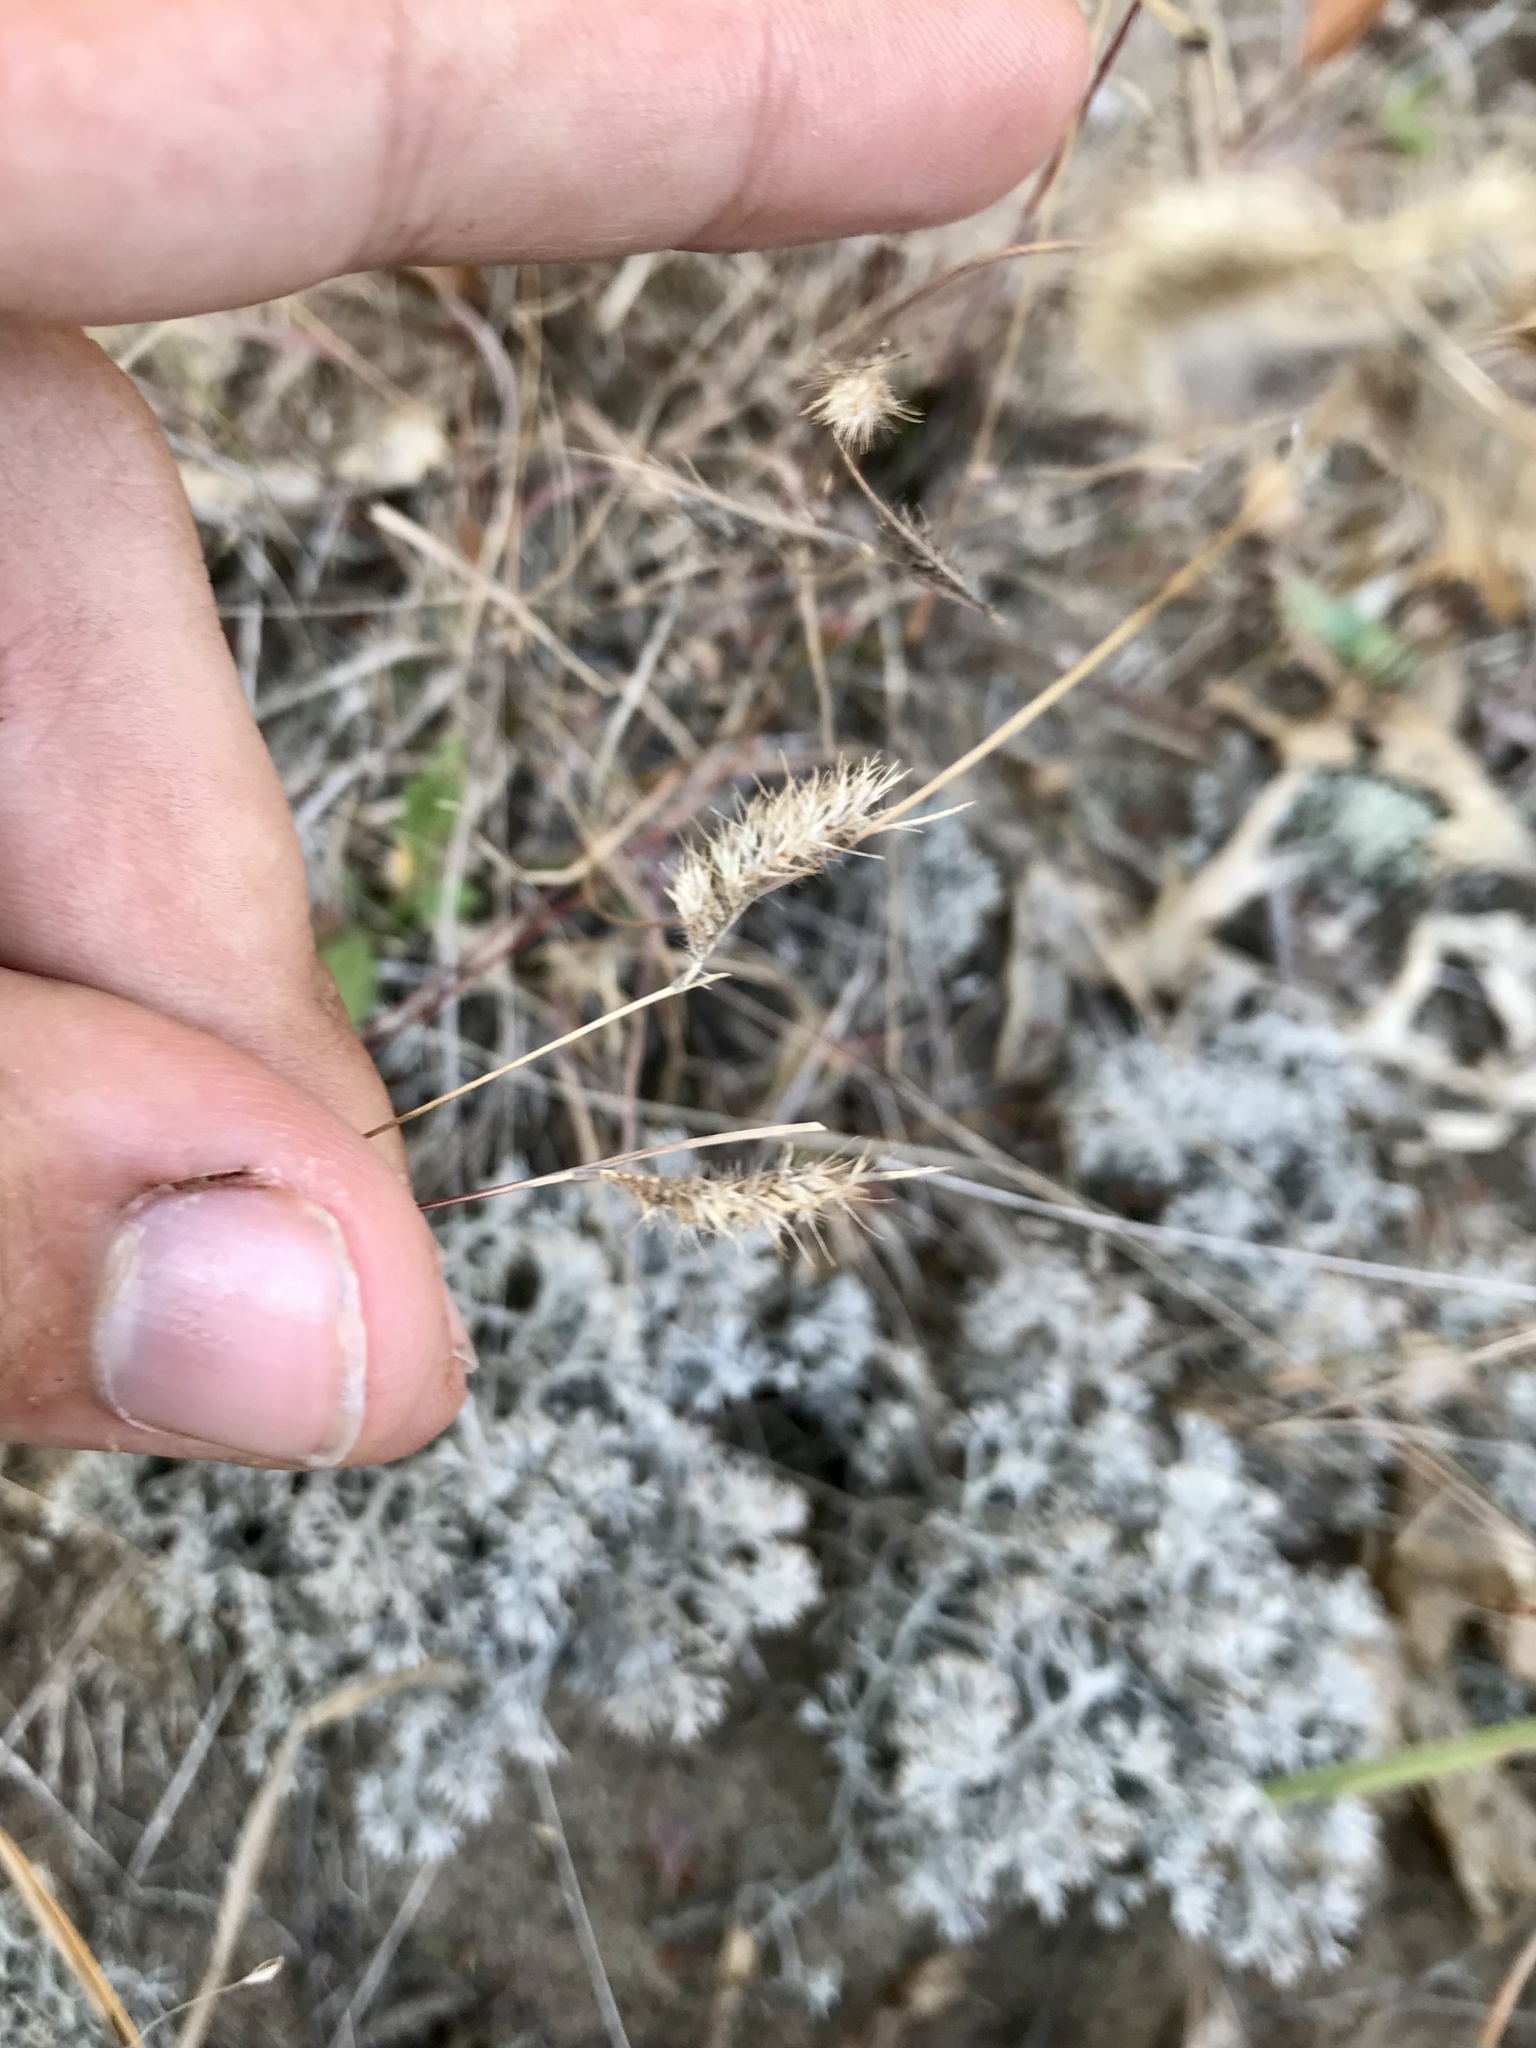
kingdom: Plantae
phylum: Tracheophyta
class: Liliopsida
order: Poales
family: Poaceae
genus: Bouteloua
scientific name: Bouteloua hirsuta
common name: Hairy grama
